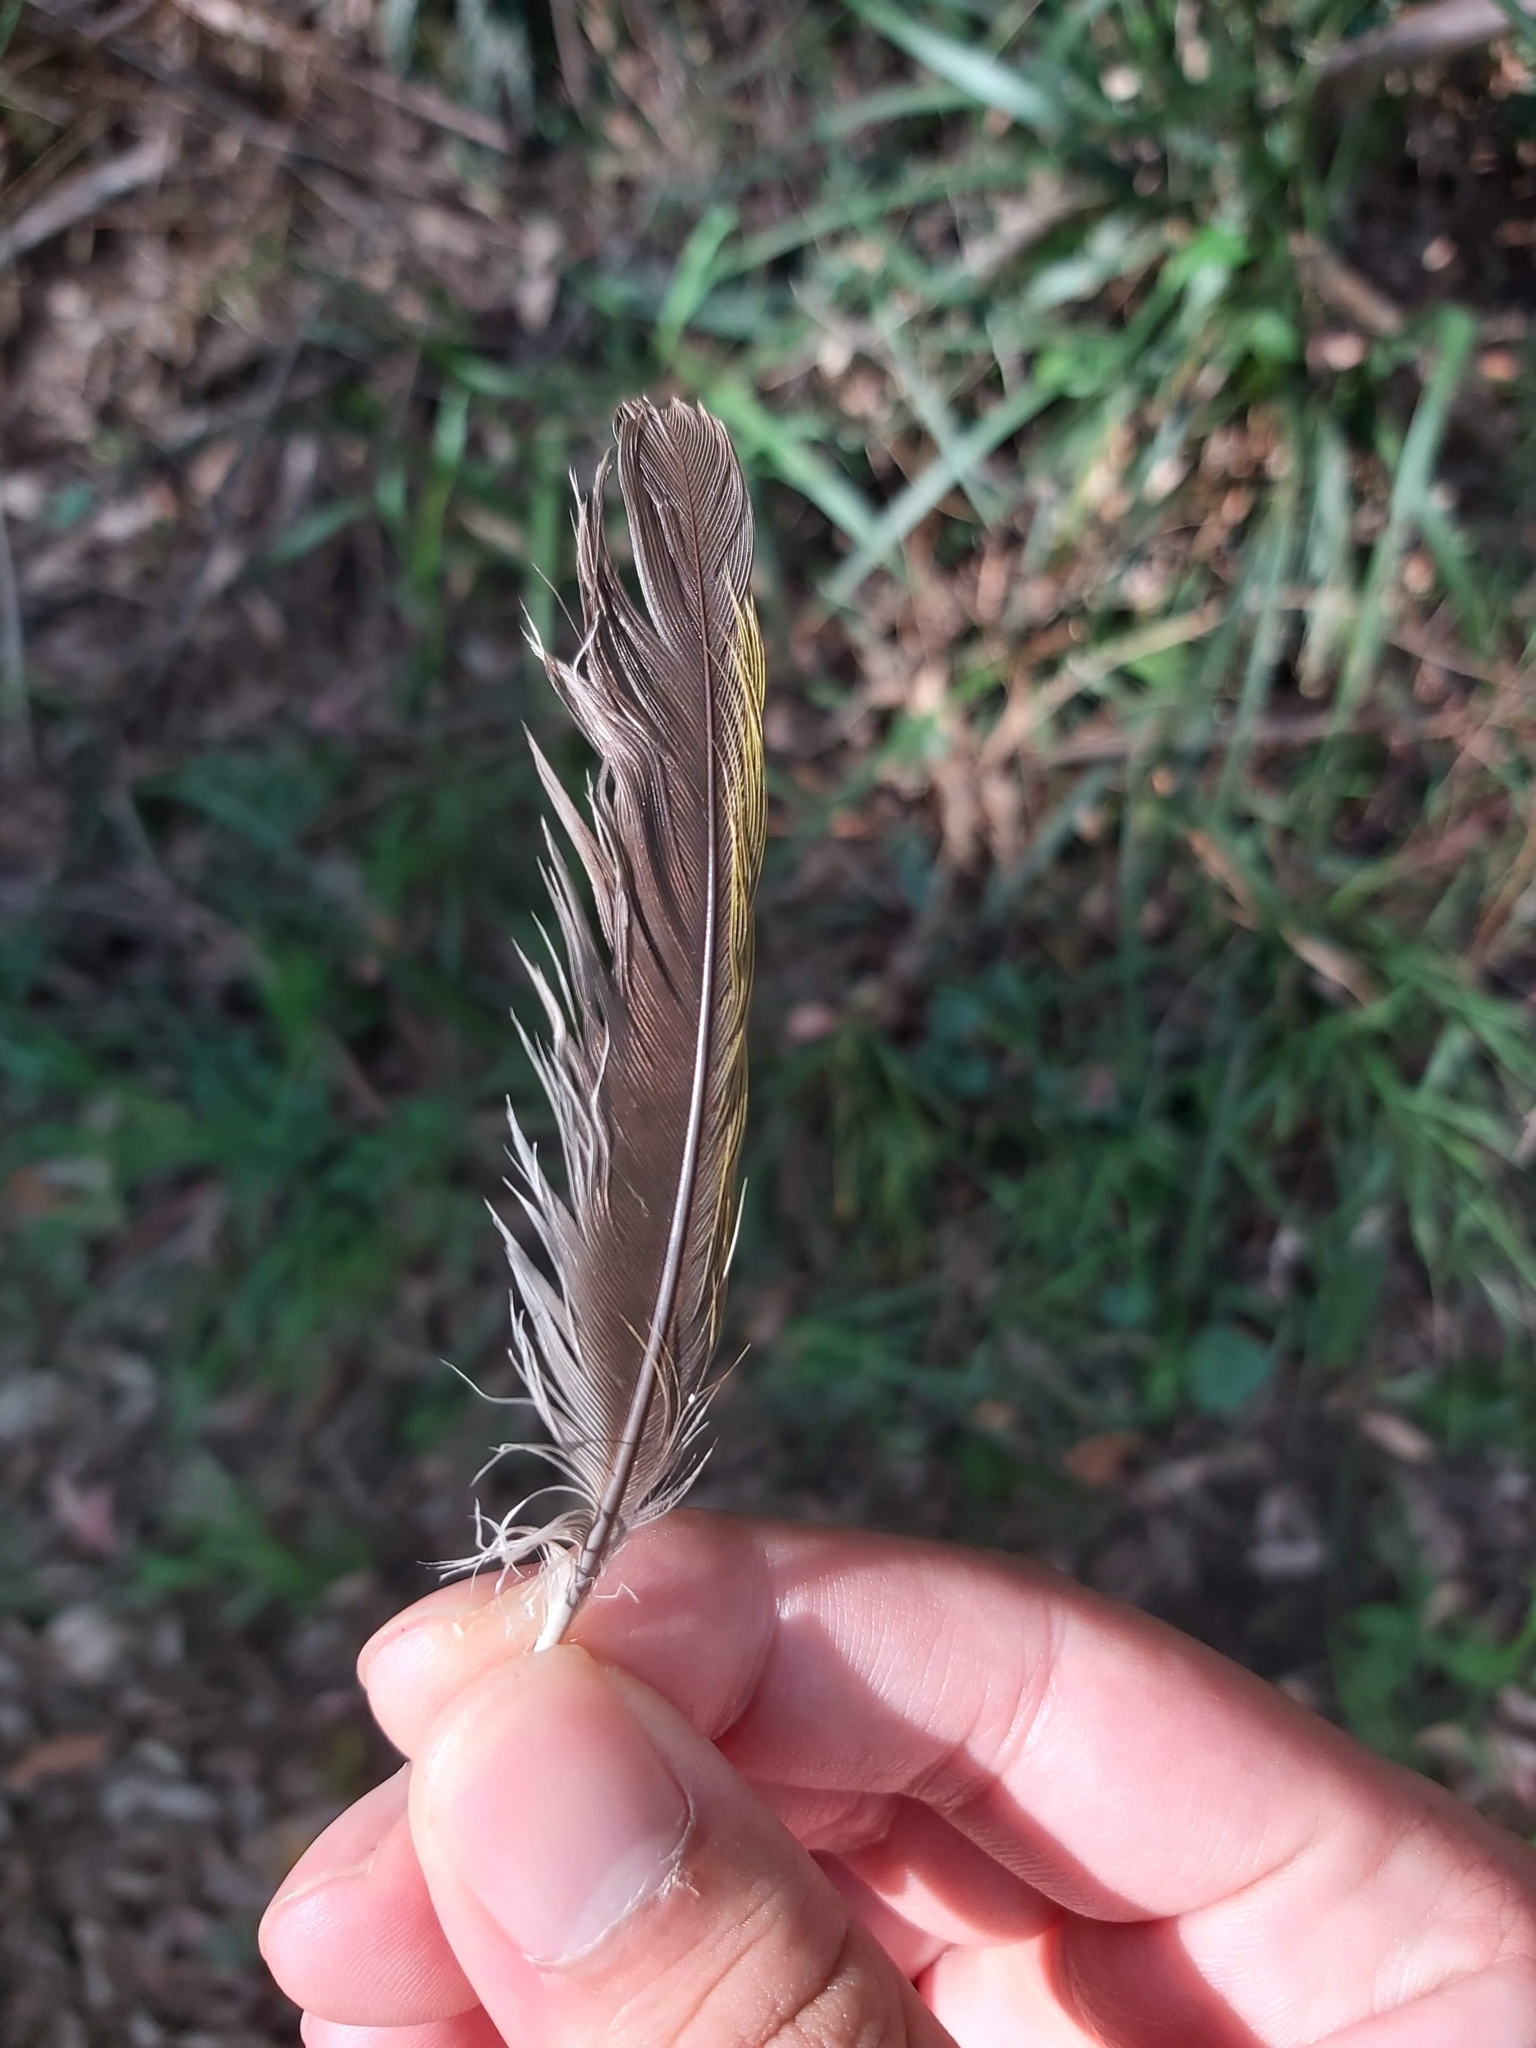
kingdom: Animalia
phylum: Chordata
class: Aves
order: Passeriformes
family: Meliphagidae
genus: Manorina
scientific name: Manorina melanocephala
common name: Noisy miner
